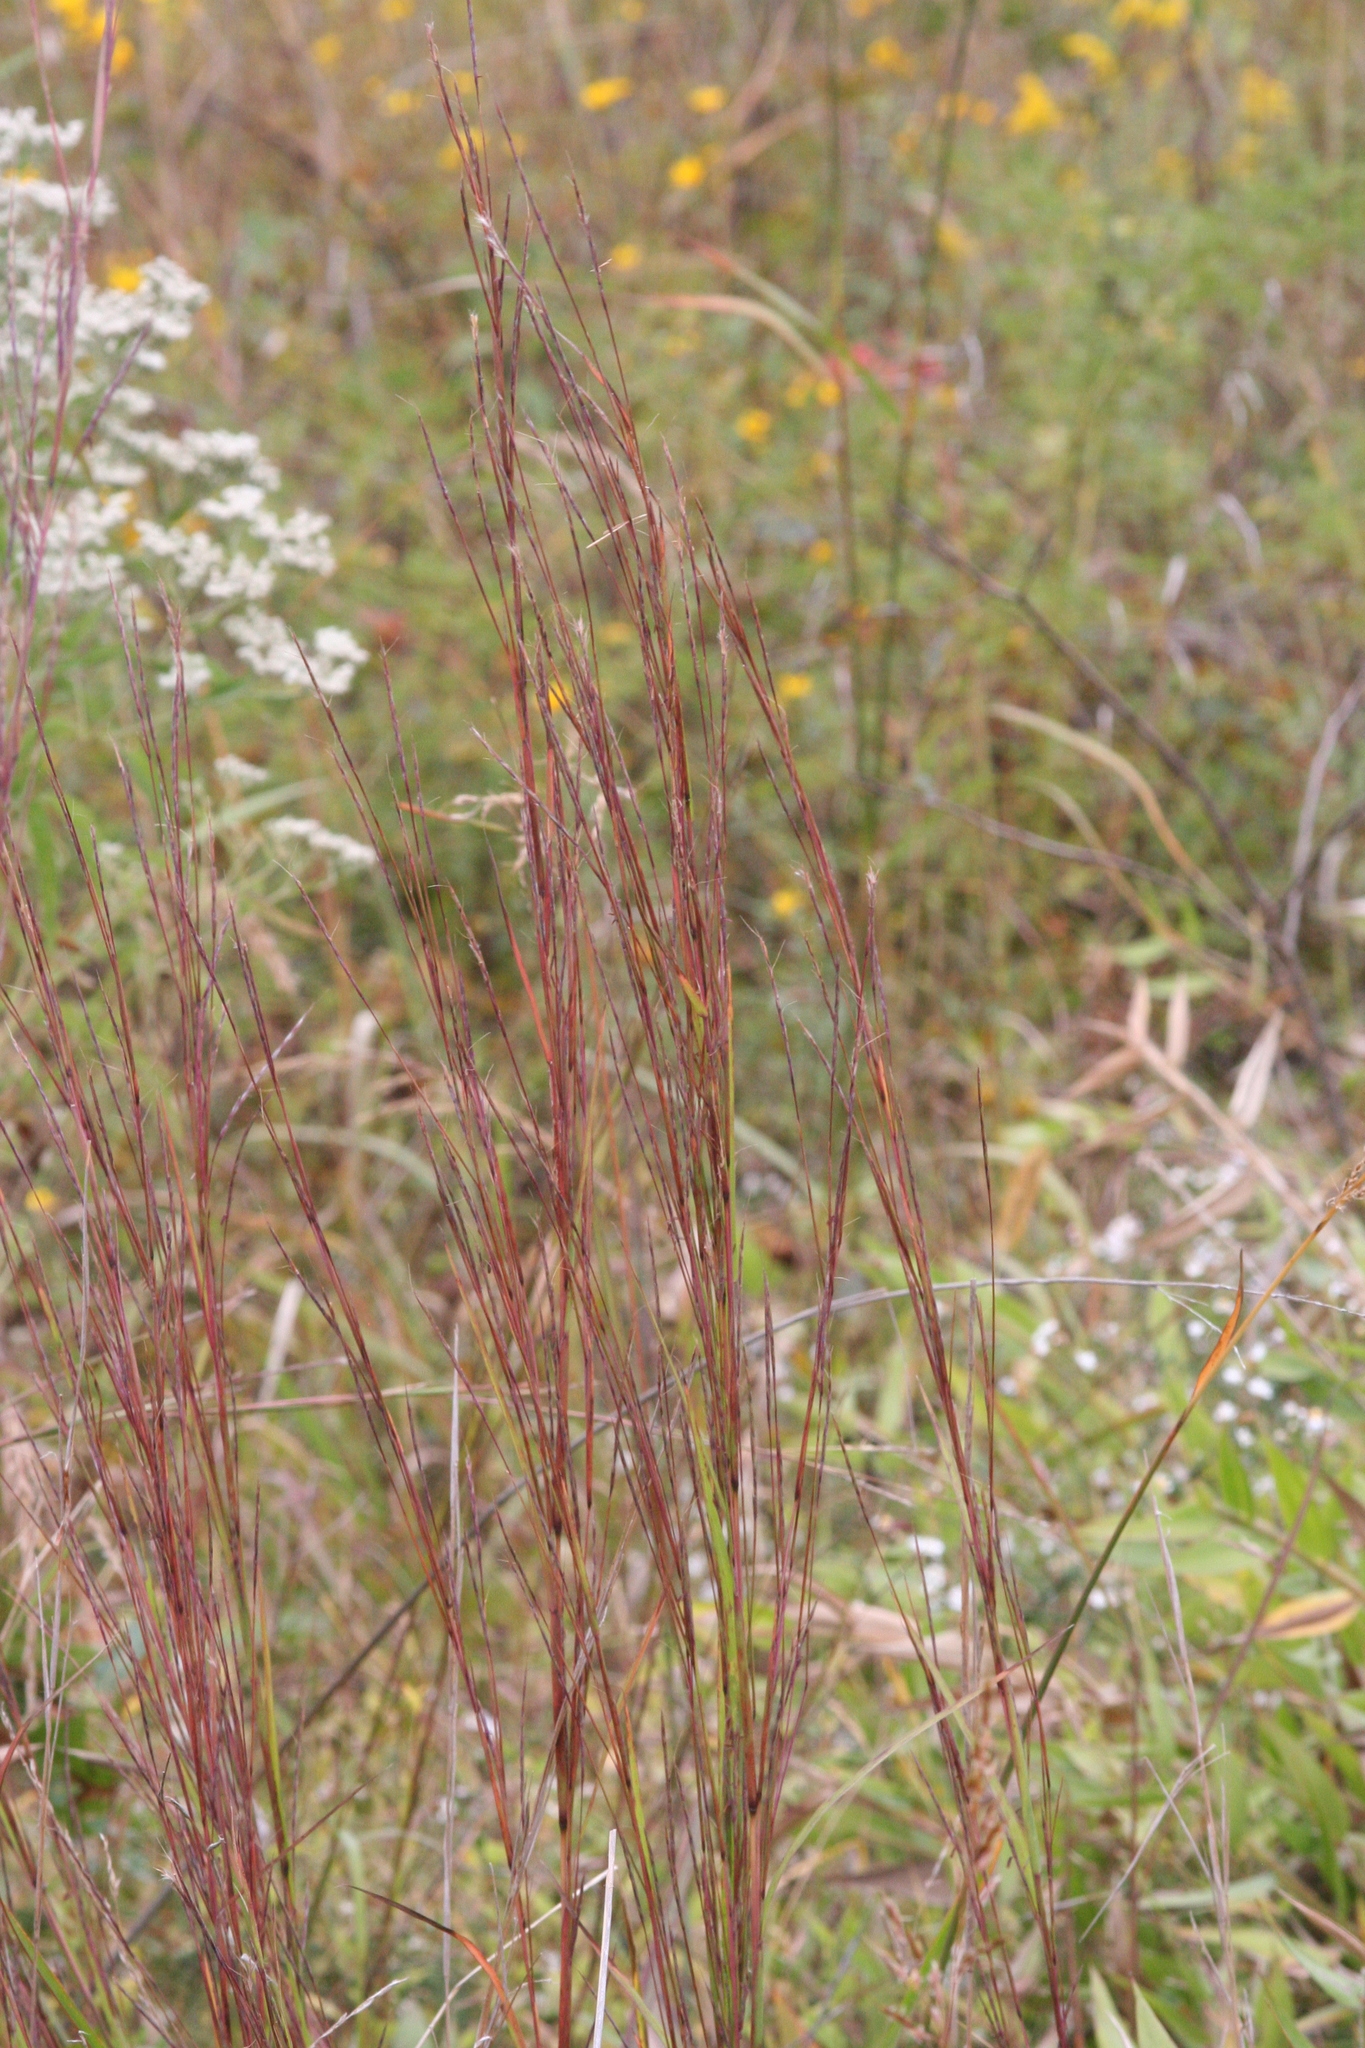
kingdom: Plantae
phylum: Tracheophyta
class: Liliopsida
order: Poales
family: Poaceae
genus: Schizachyrium
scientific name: Schizachyrium scoparium
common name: Little bluestem
